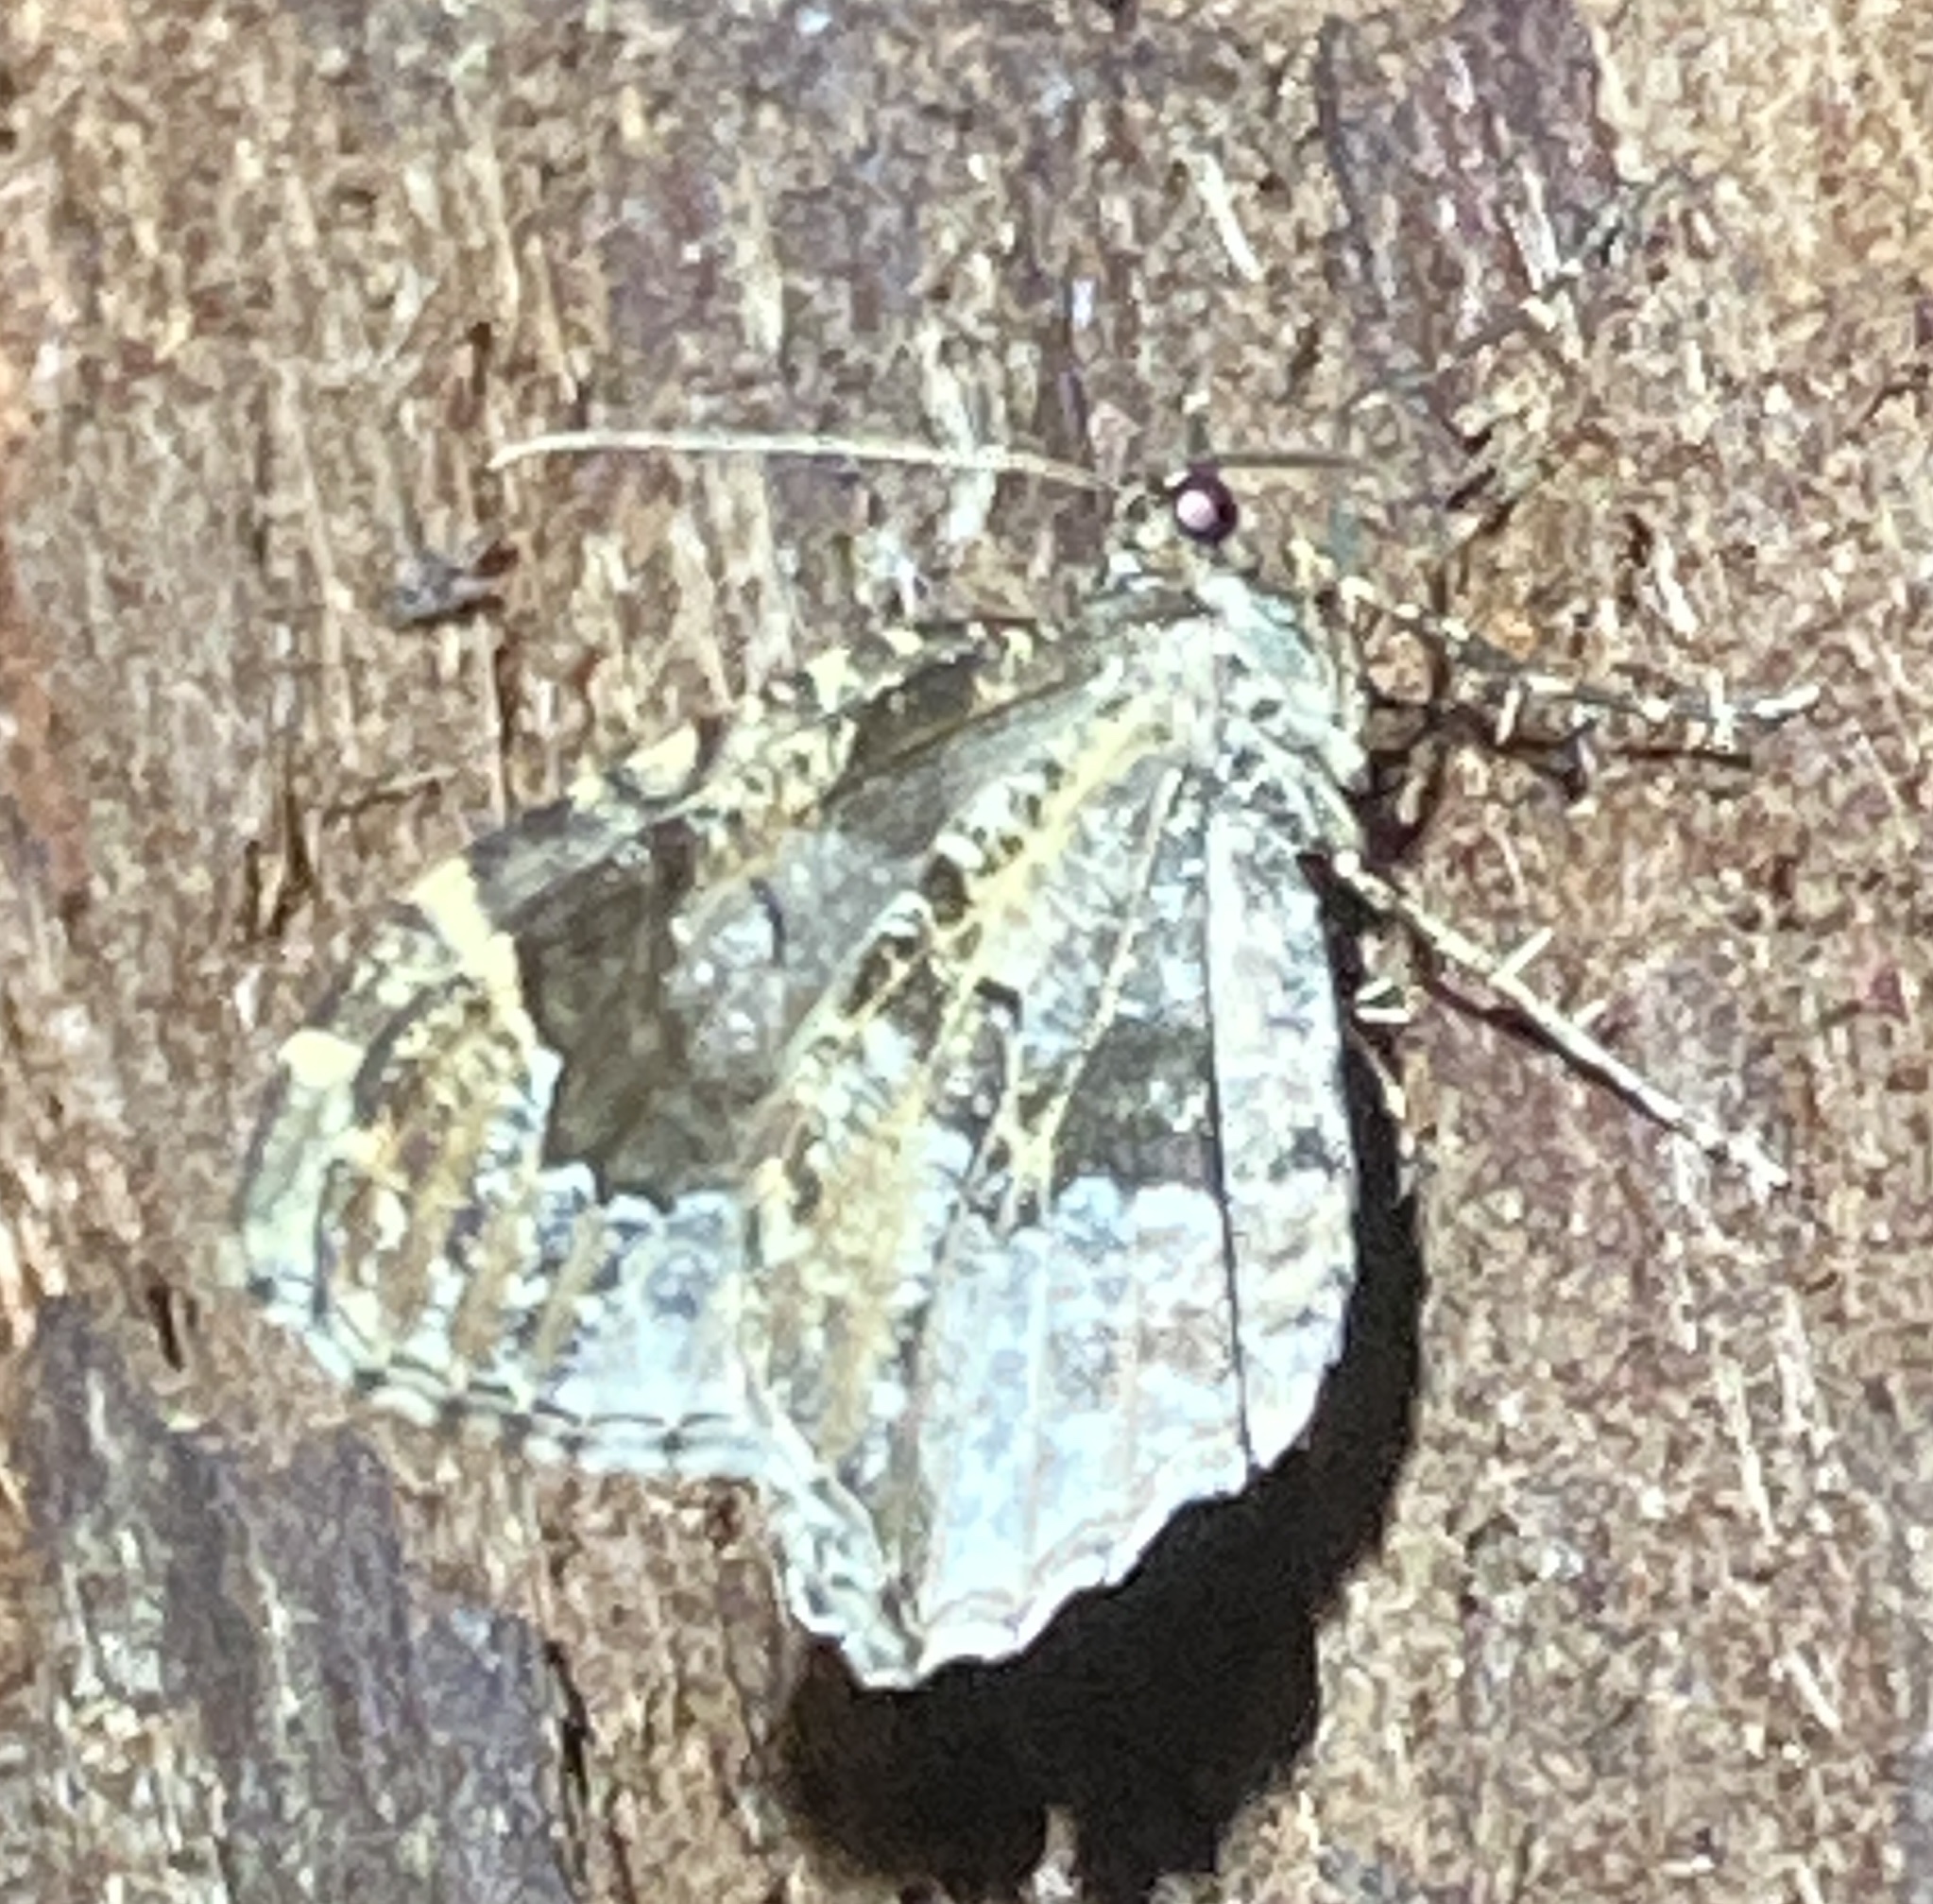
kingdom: Animalia
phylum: Arthropoda
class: Insecta
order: Lepidoptera
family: Geometridae
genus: Ceratodalia
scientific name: Ceratodalia gueneata
